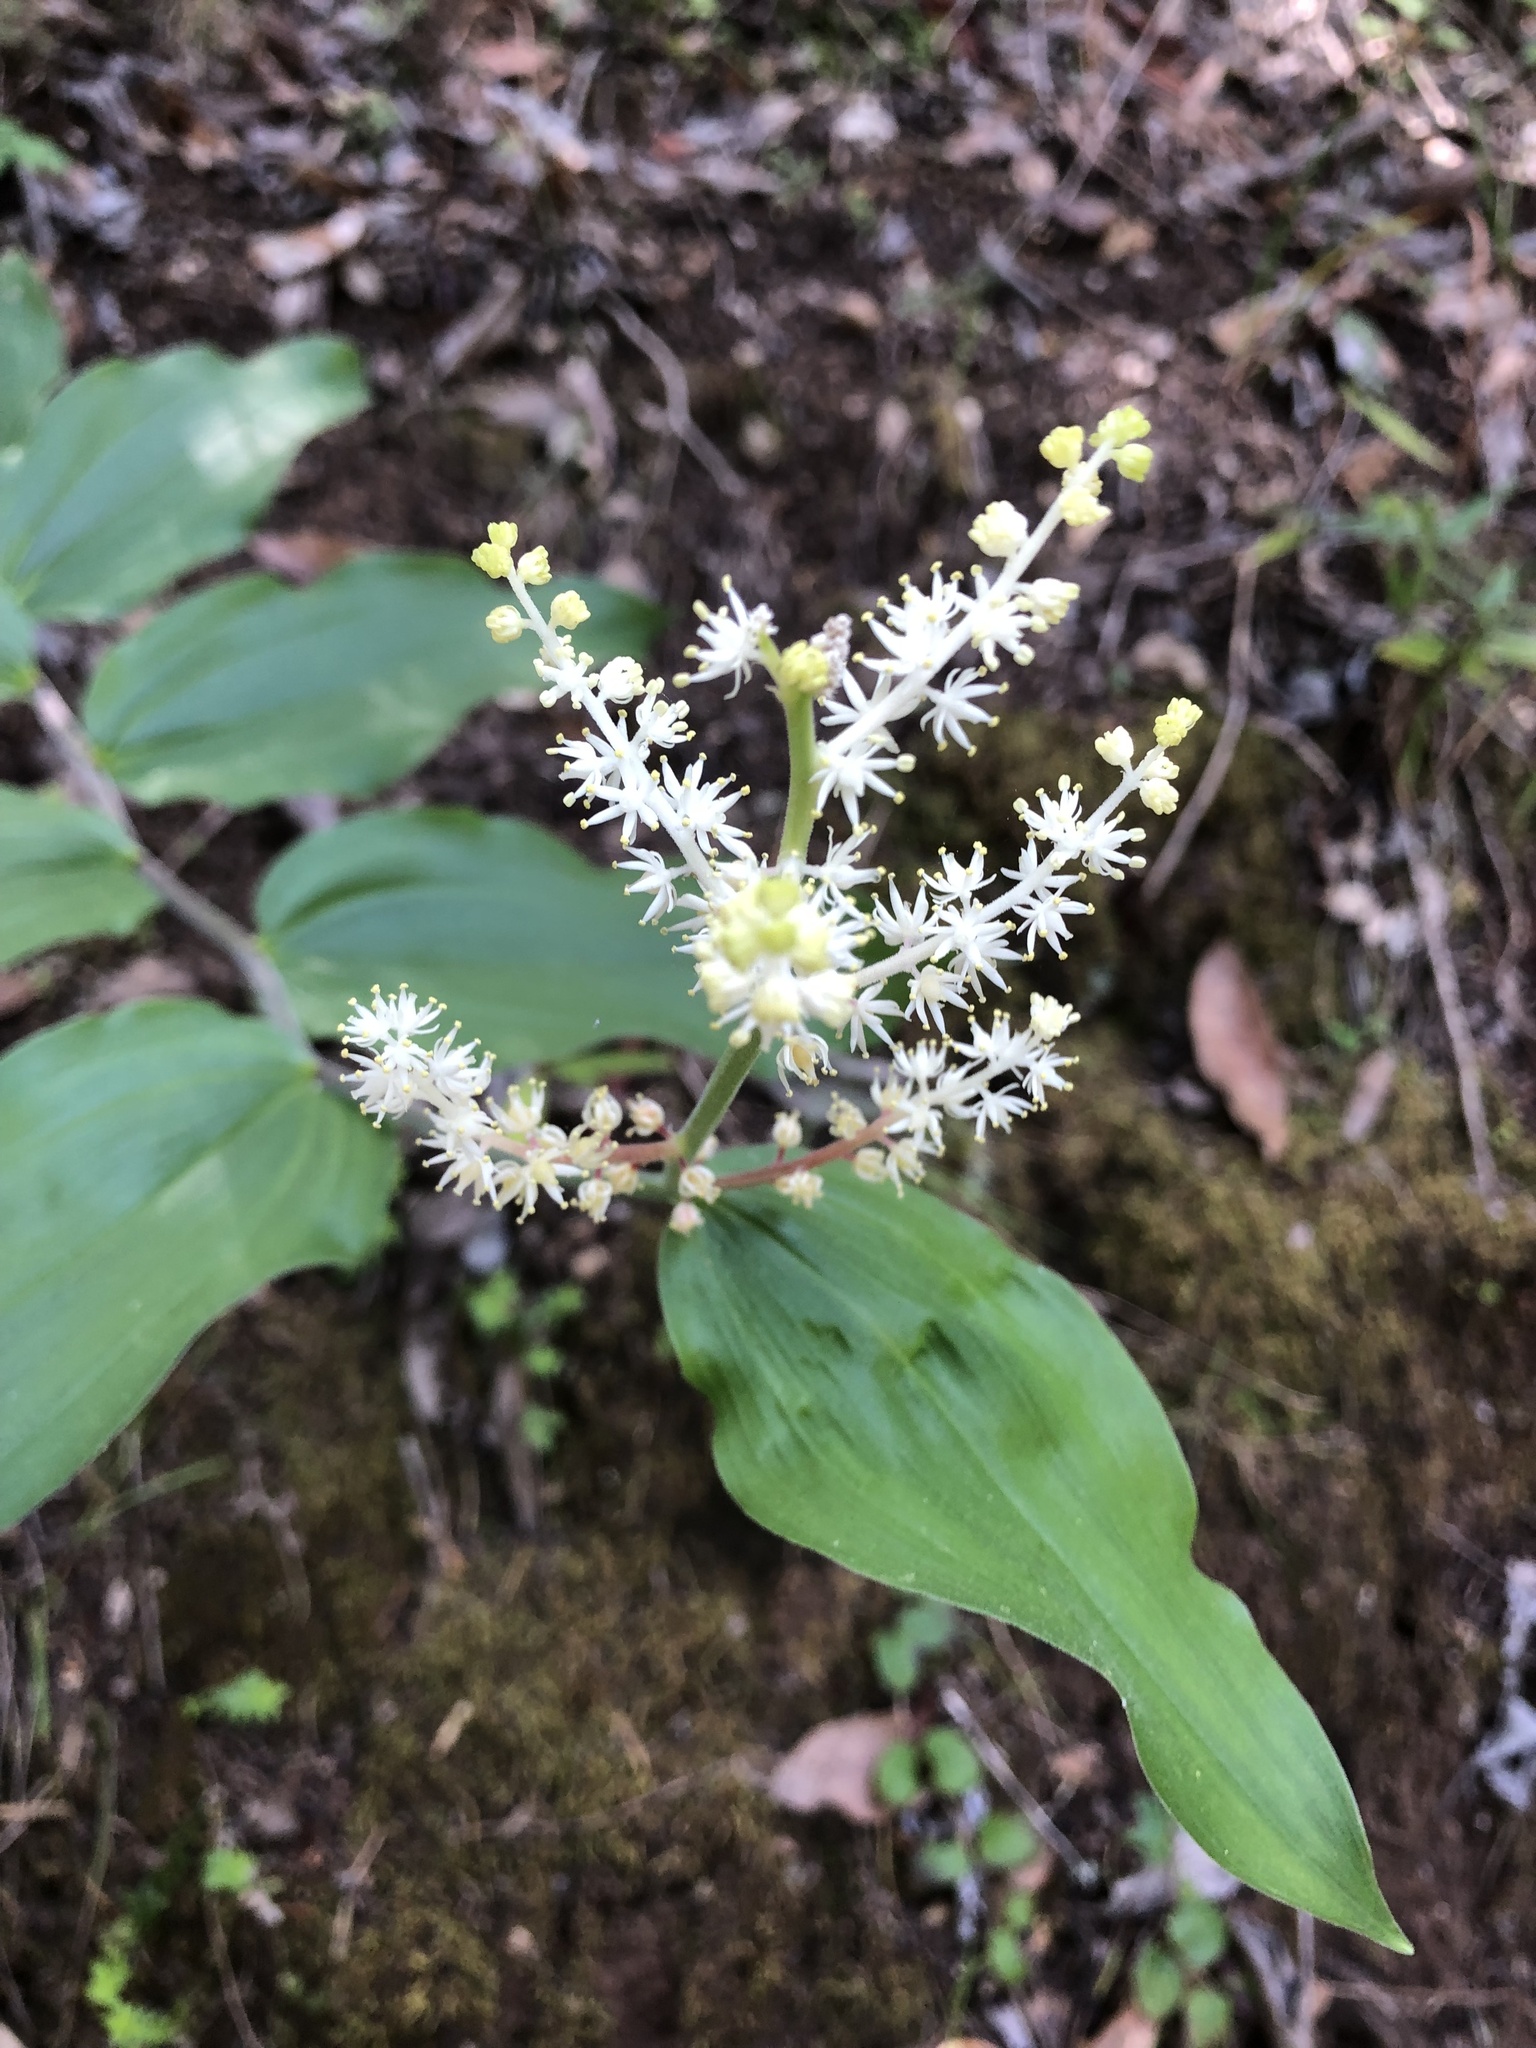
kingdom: Plantae
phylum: Tracheophyta
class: Liliopsida
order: Asparagales
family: Asparagaceae
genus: Maianthemum
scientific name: Maianthemum racemosum
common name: False spikenard
